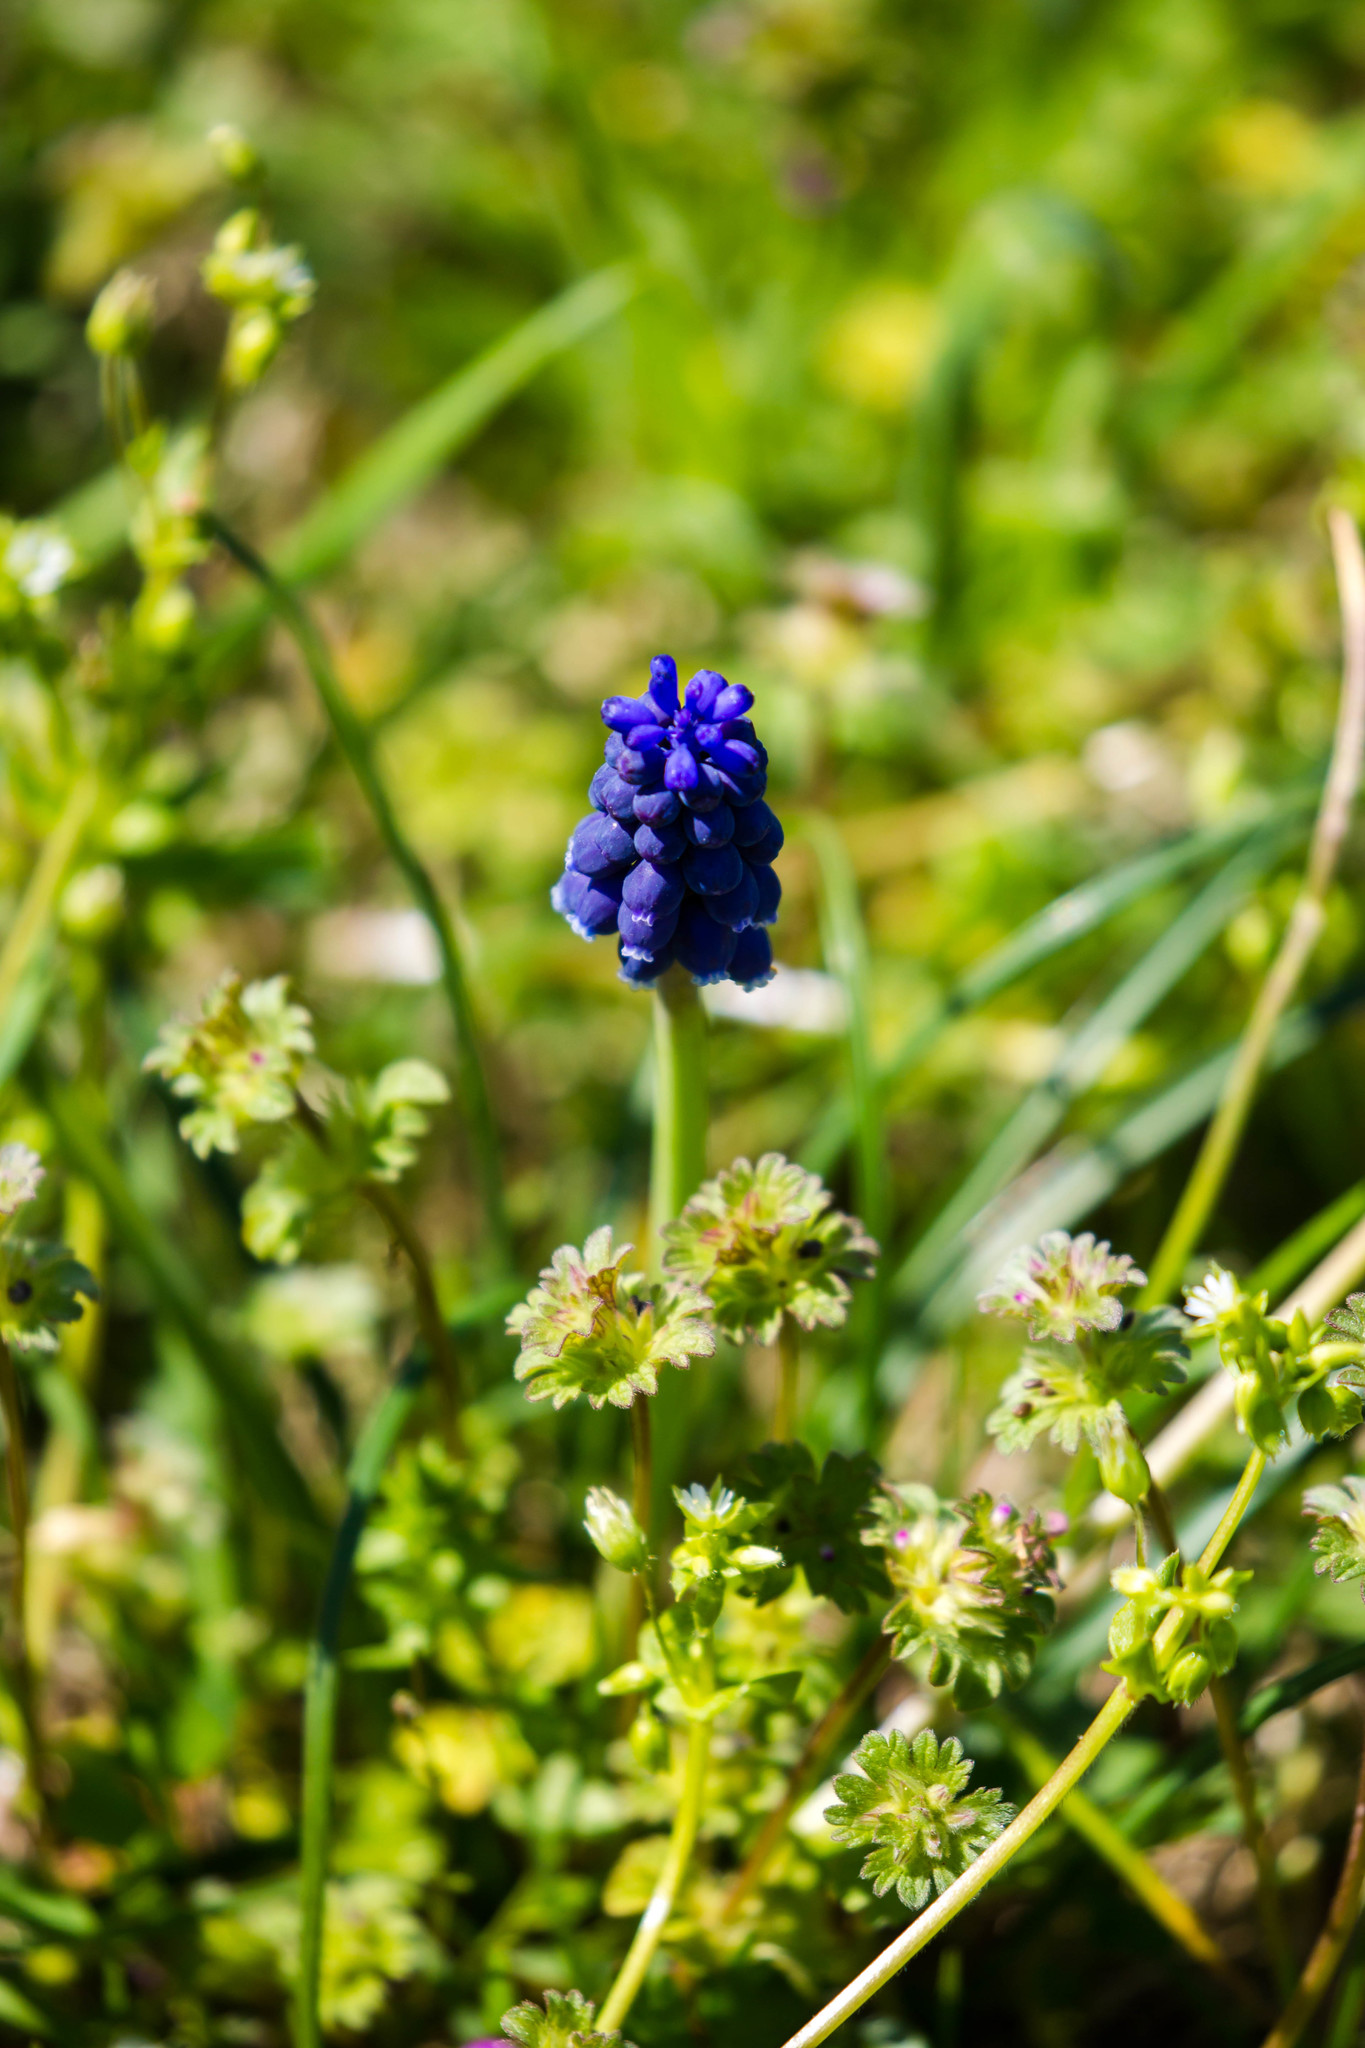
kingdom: Plantae
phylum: Tracheophyta
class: Liliopsida
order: Asparagales
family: Asparagaceae
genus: Muscari
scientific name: Muscari neglectum
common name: Grape-hyacinth
